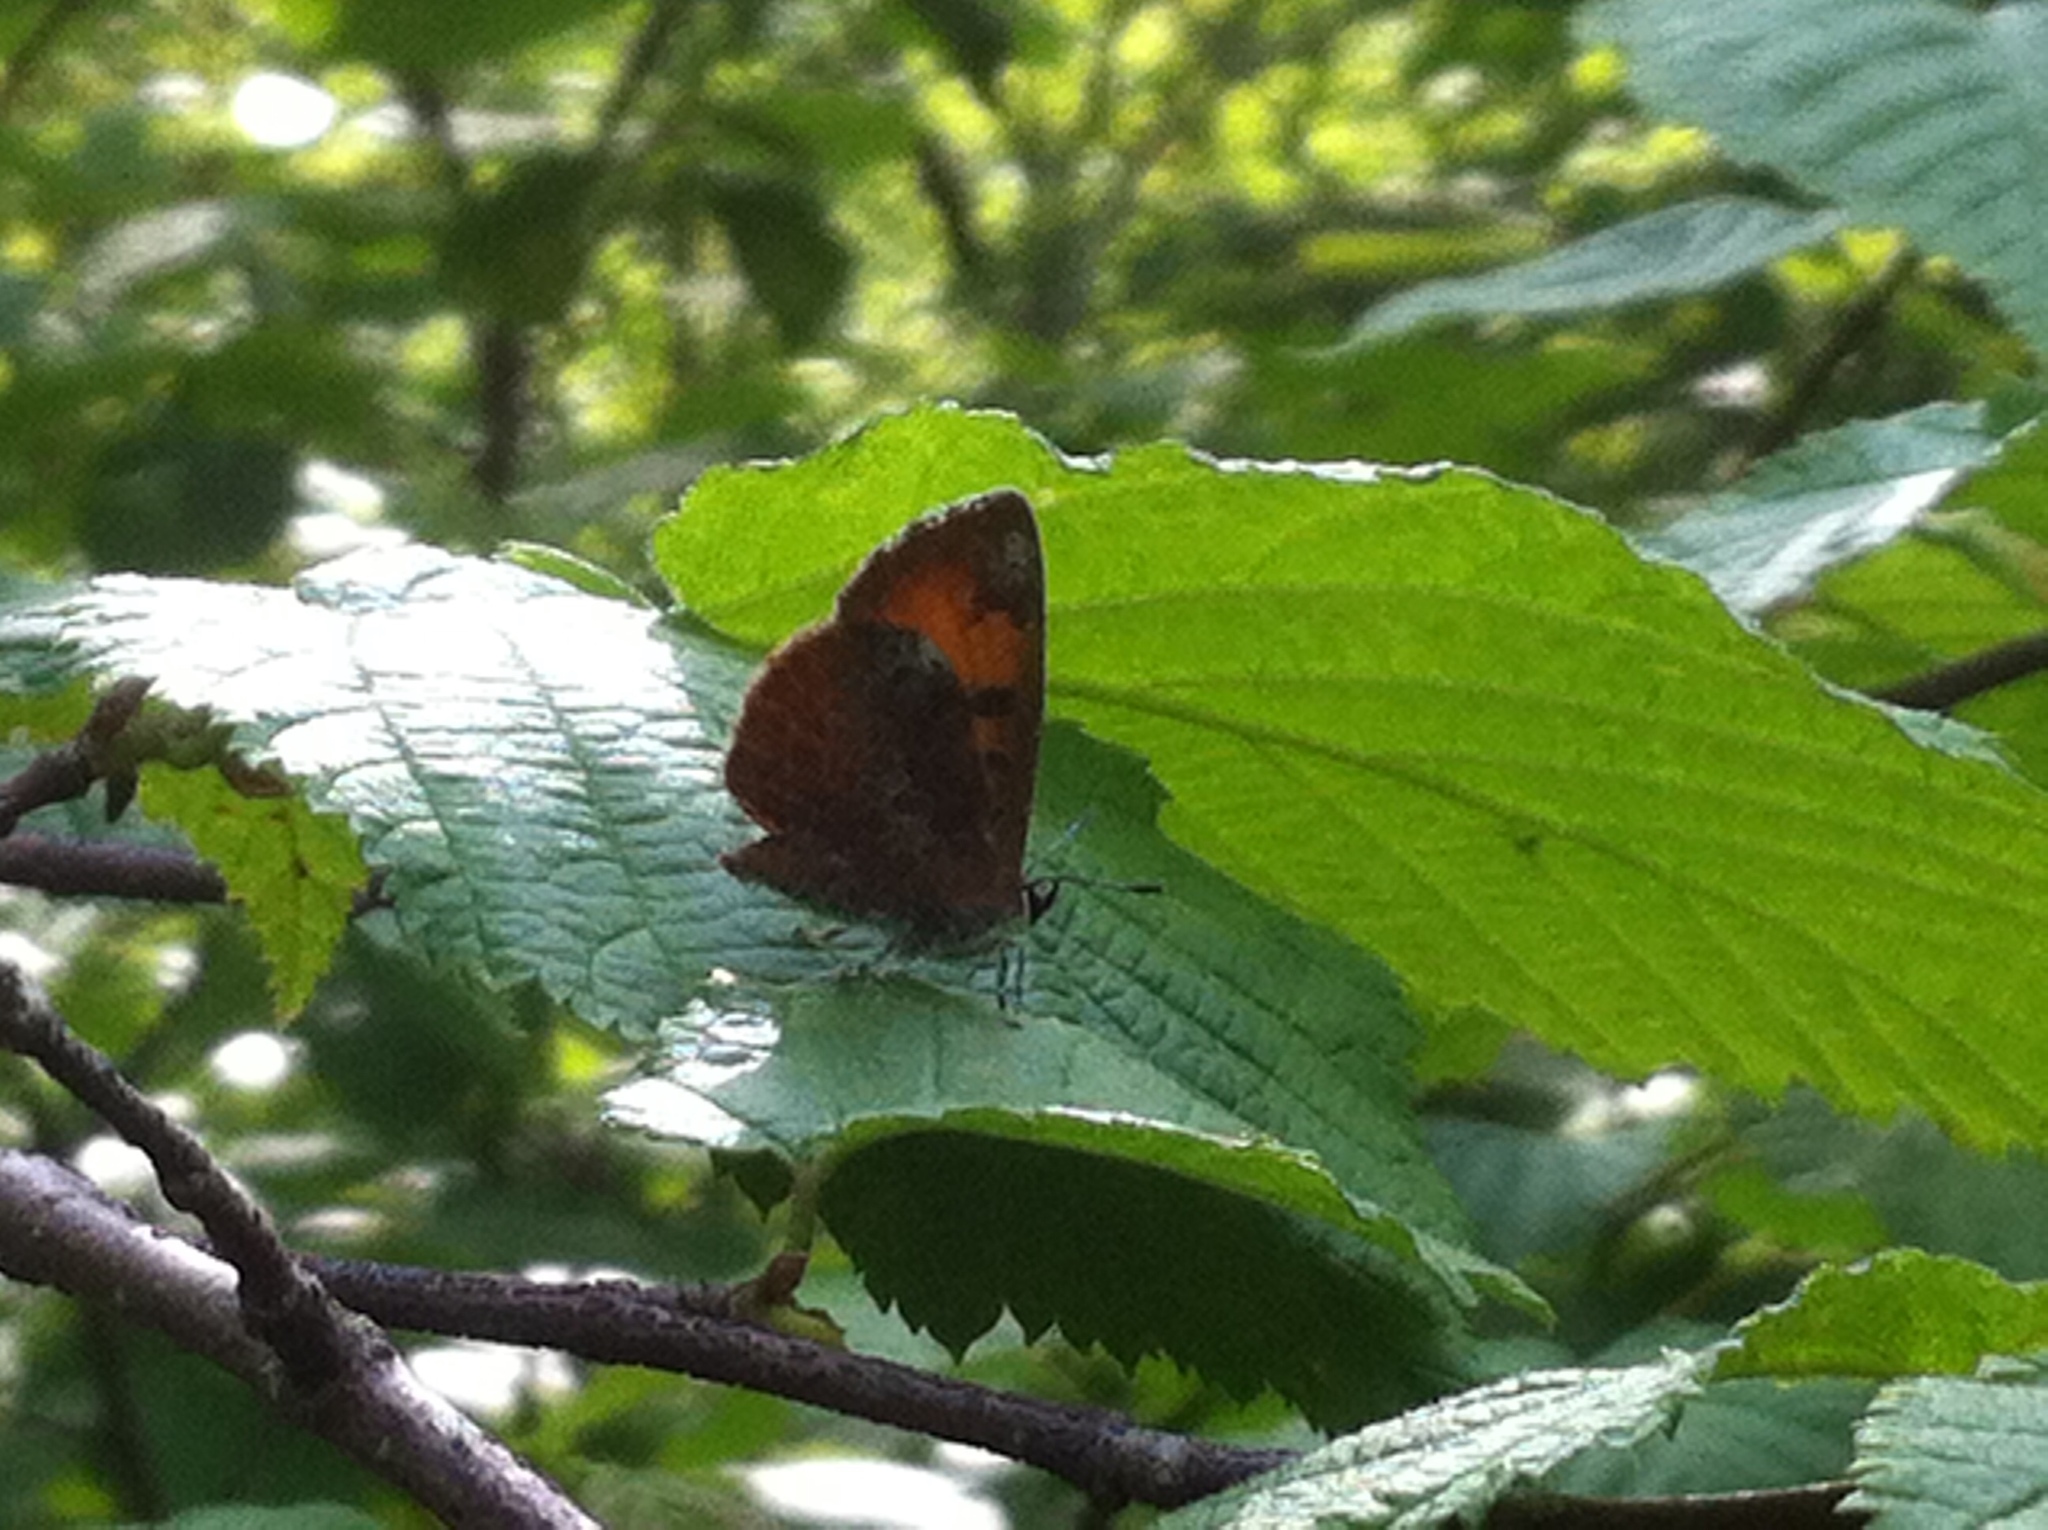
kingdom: Animalia
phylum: Arthropoda
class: Insecta
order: Lepidoptera
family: Lycaenidae
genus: Feniseca
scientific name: Feniseca tarquinius
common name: Harvester
